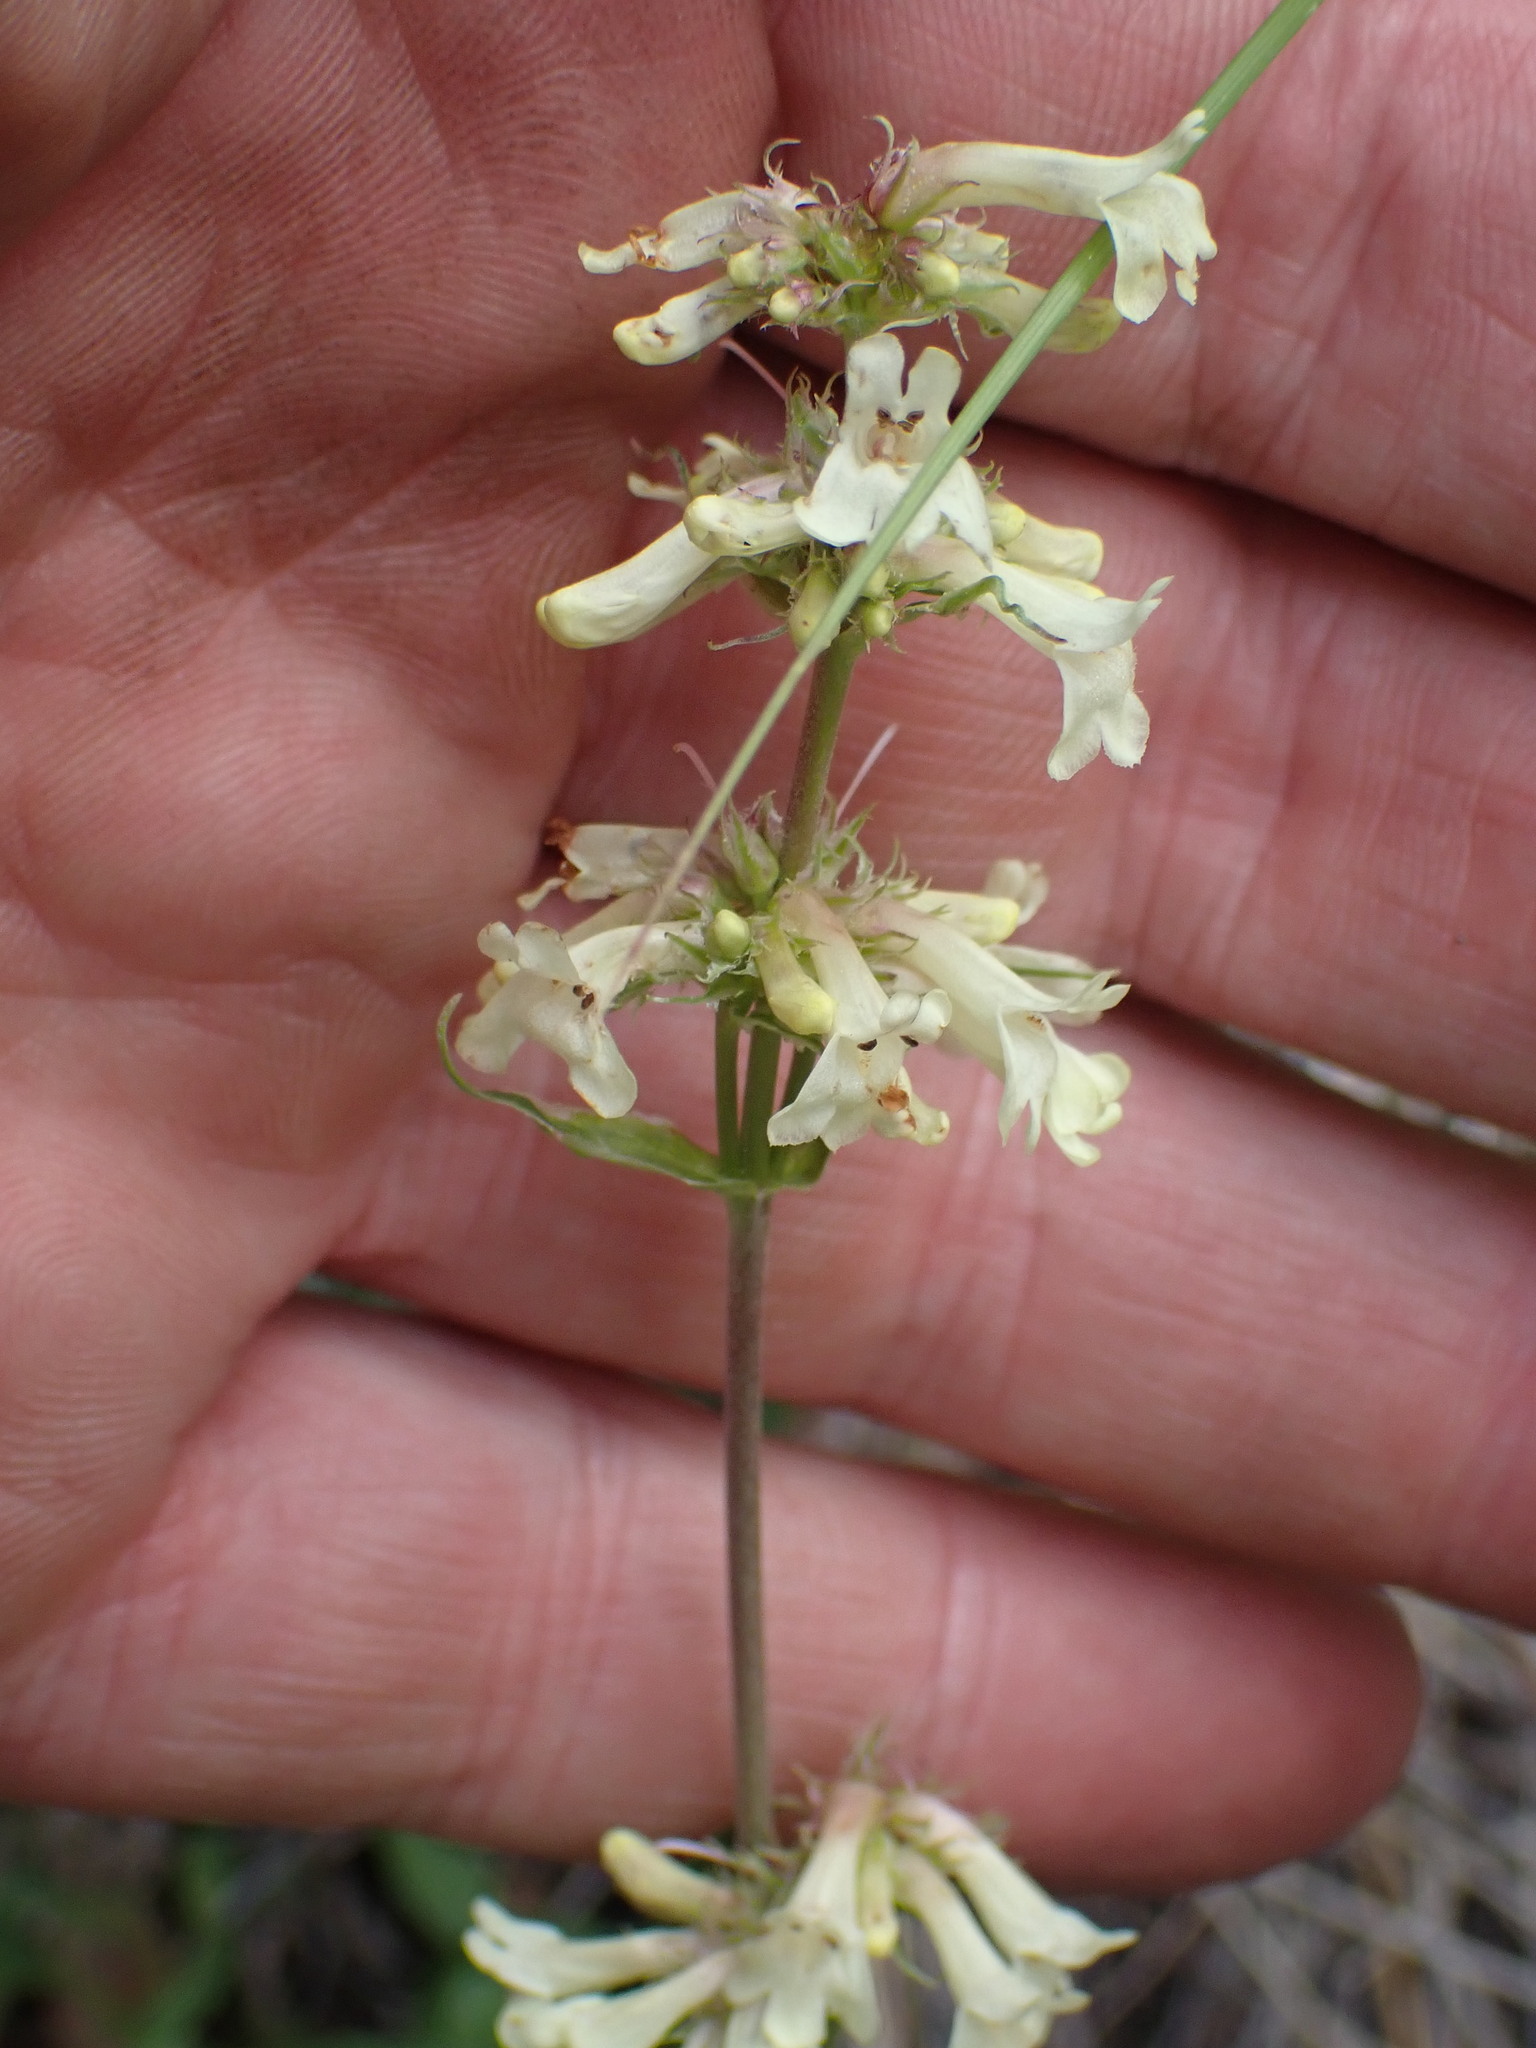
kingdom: Plantae
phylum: Tracheophyta
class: Magnoliopsida
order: Lamiales
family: Plantaginaceae
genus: Penstemon
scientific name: Penstemon confertus
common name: Lesser yellow beardtongue
